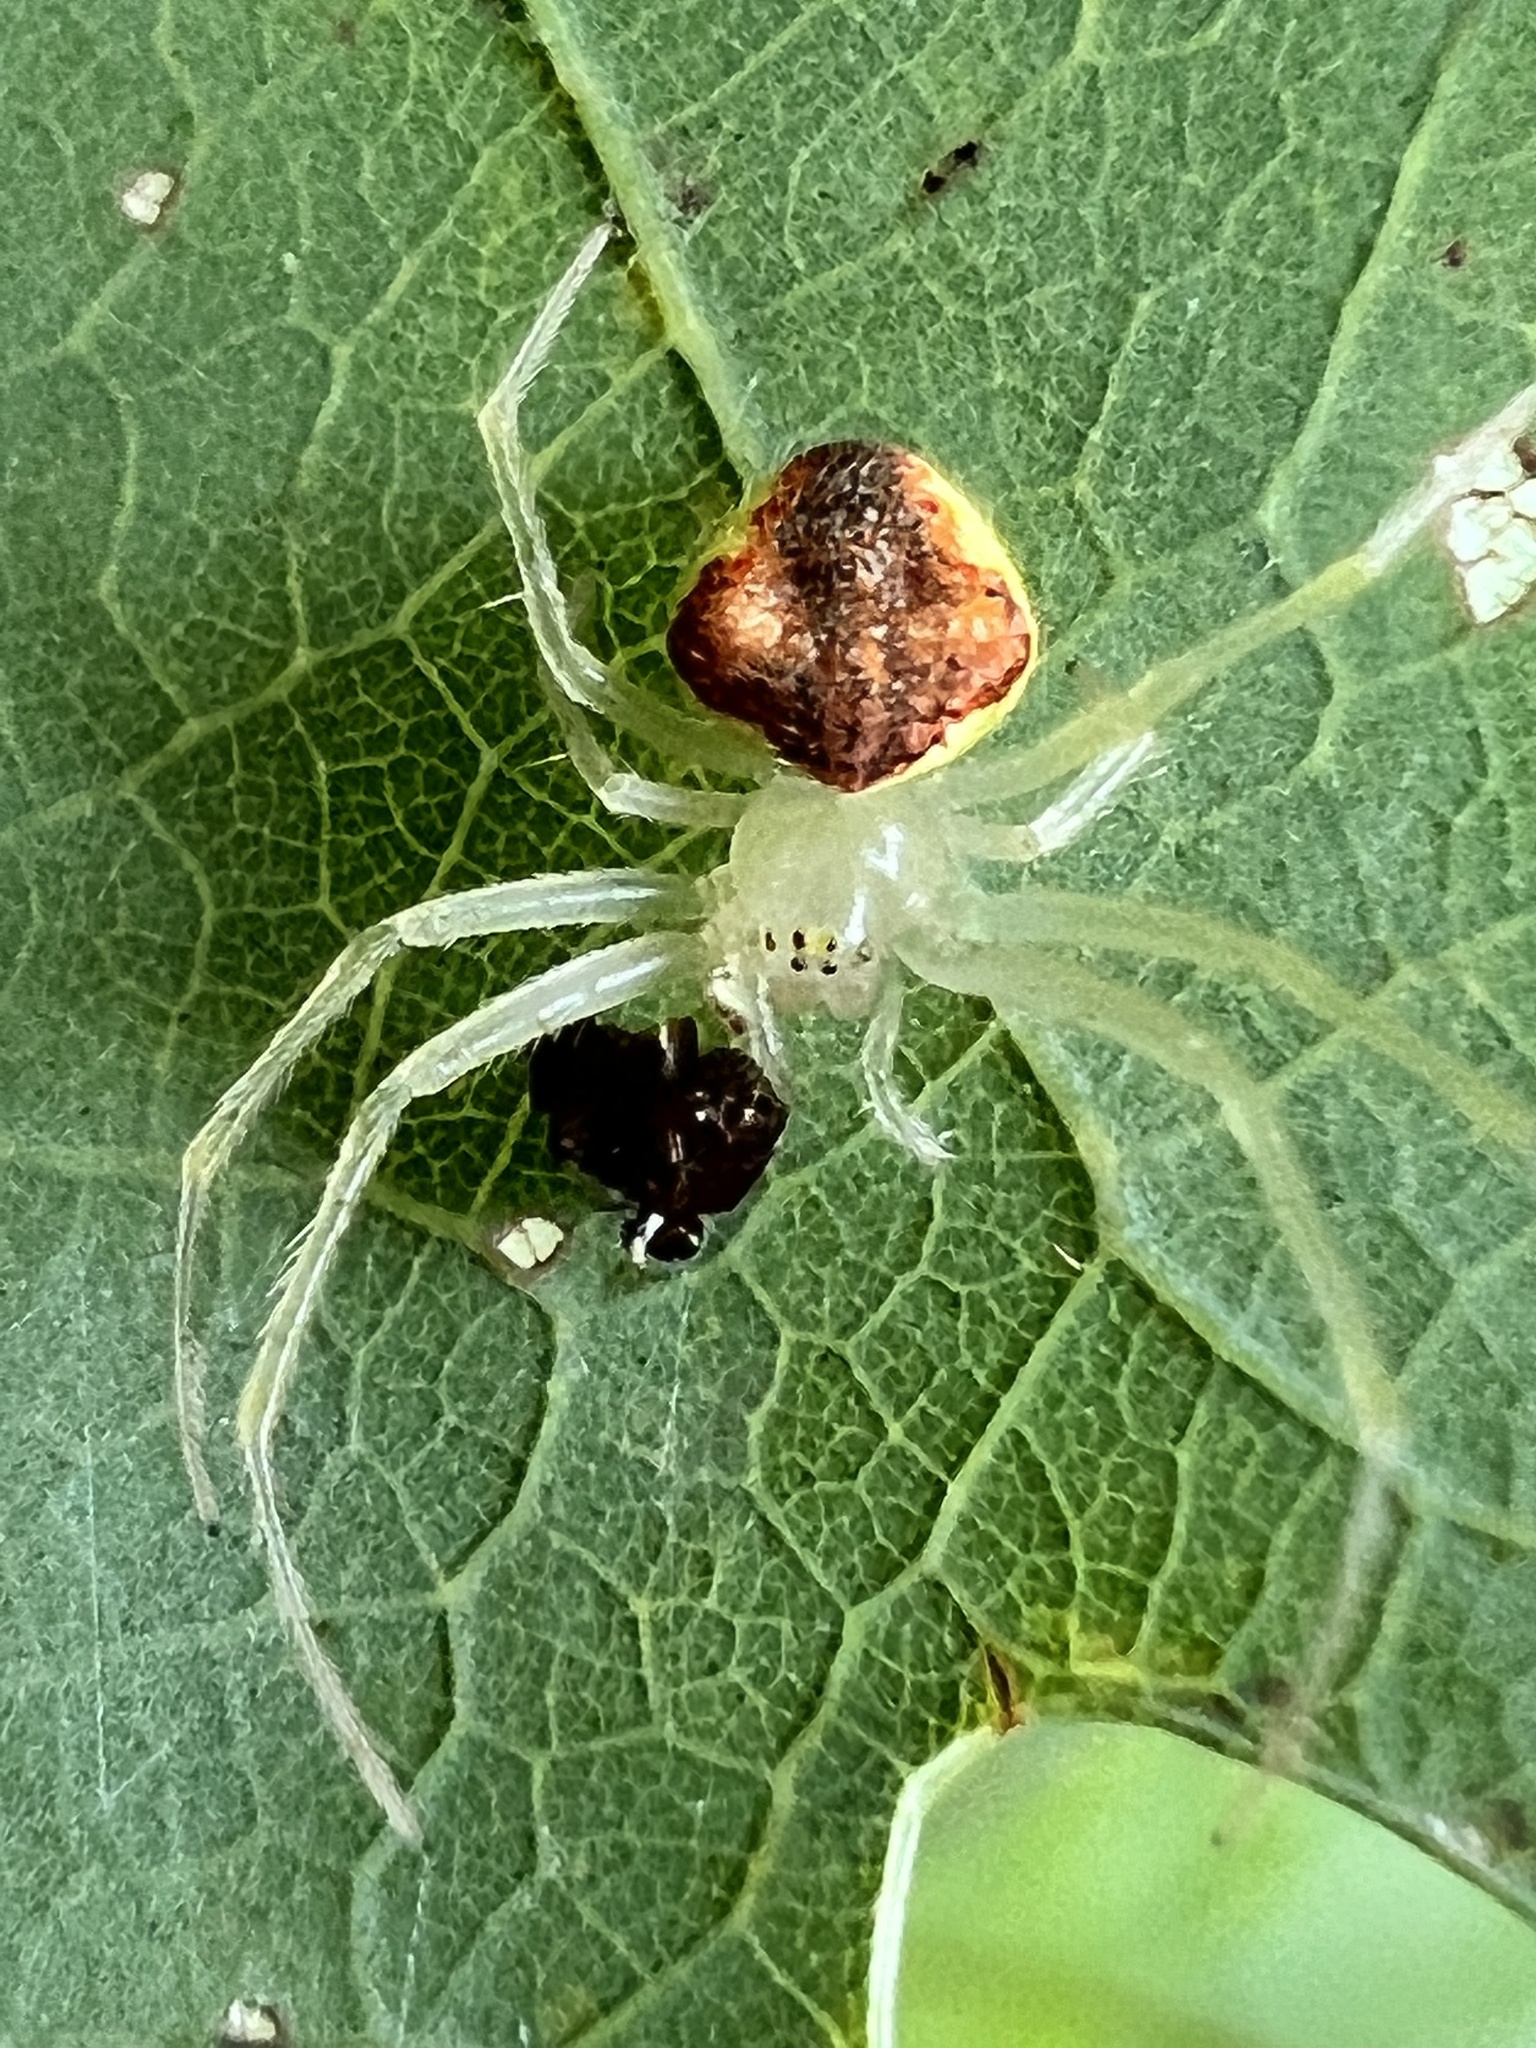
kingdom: Animalia
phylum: Arthropoda
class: Arachnida
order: Araneae
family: Araneidae
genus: Araneus
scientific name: Araneus alboventris
